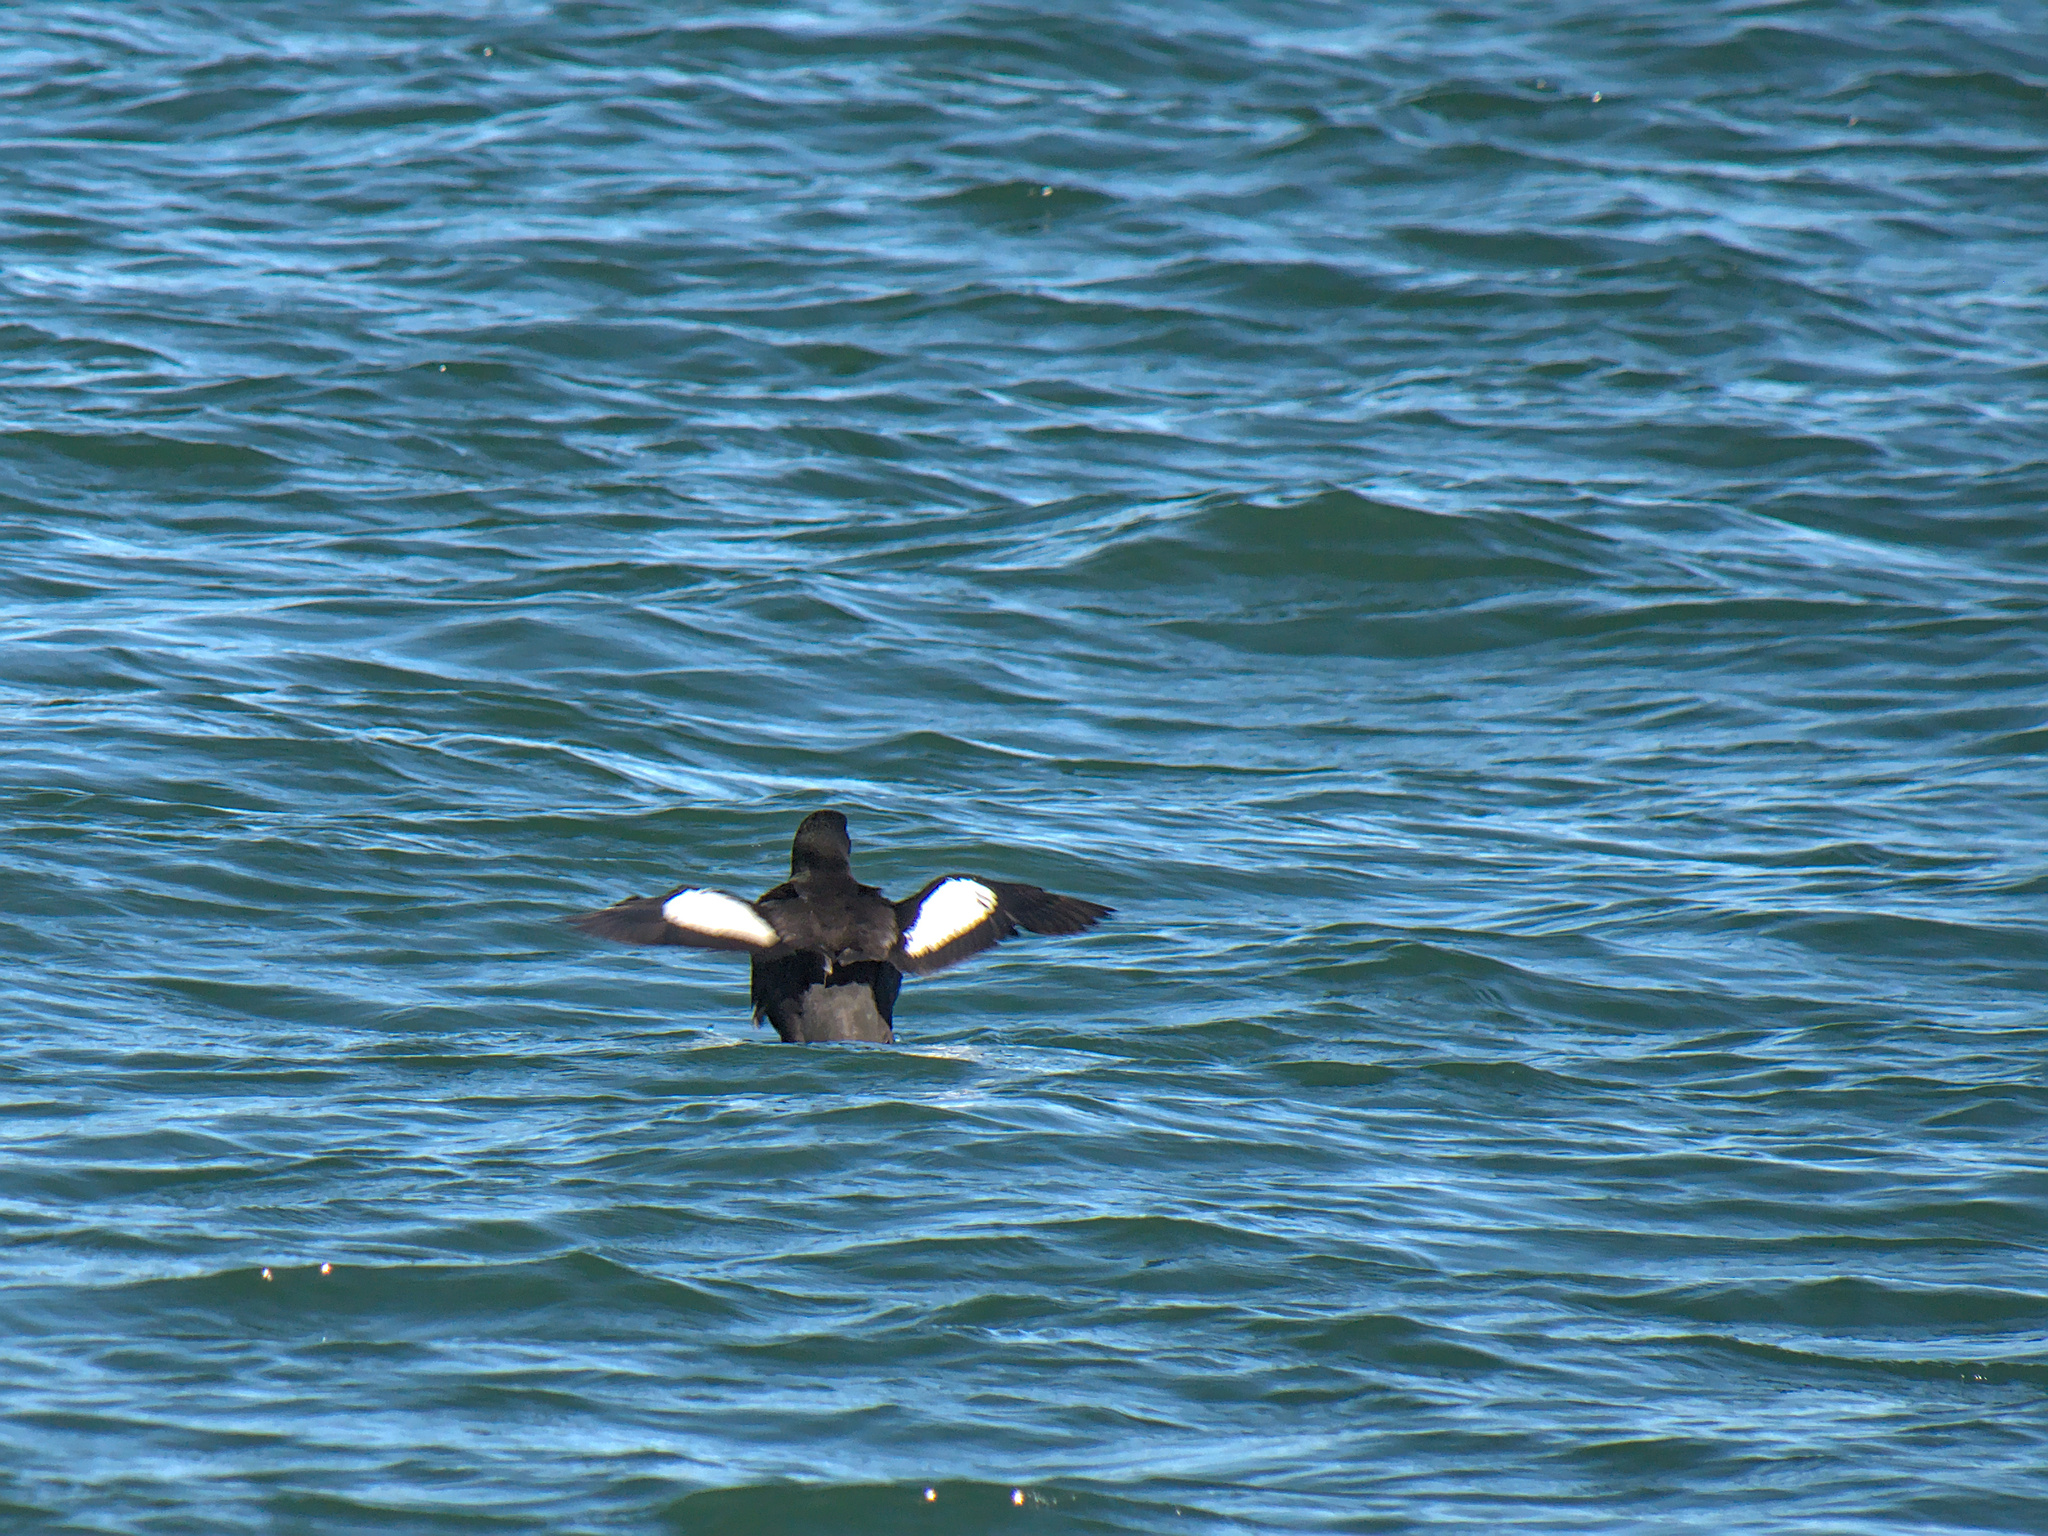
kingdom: Animalia
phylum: Chordata
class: Aves
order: Charadriiformes
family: Alcidae
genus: Cepphus
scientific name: Cepphus grylle
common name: Black guillemot
